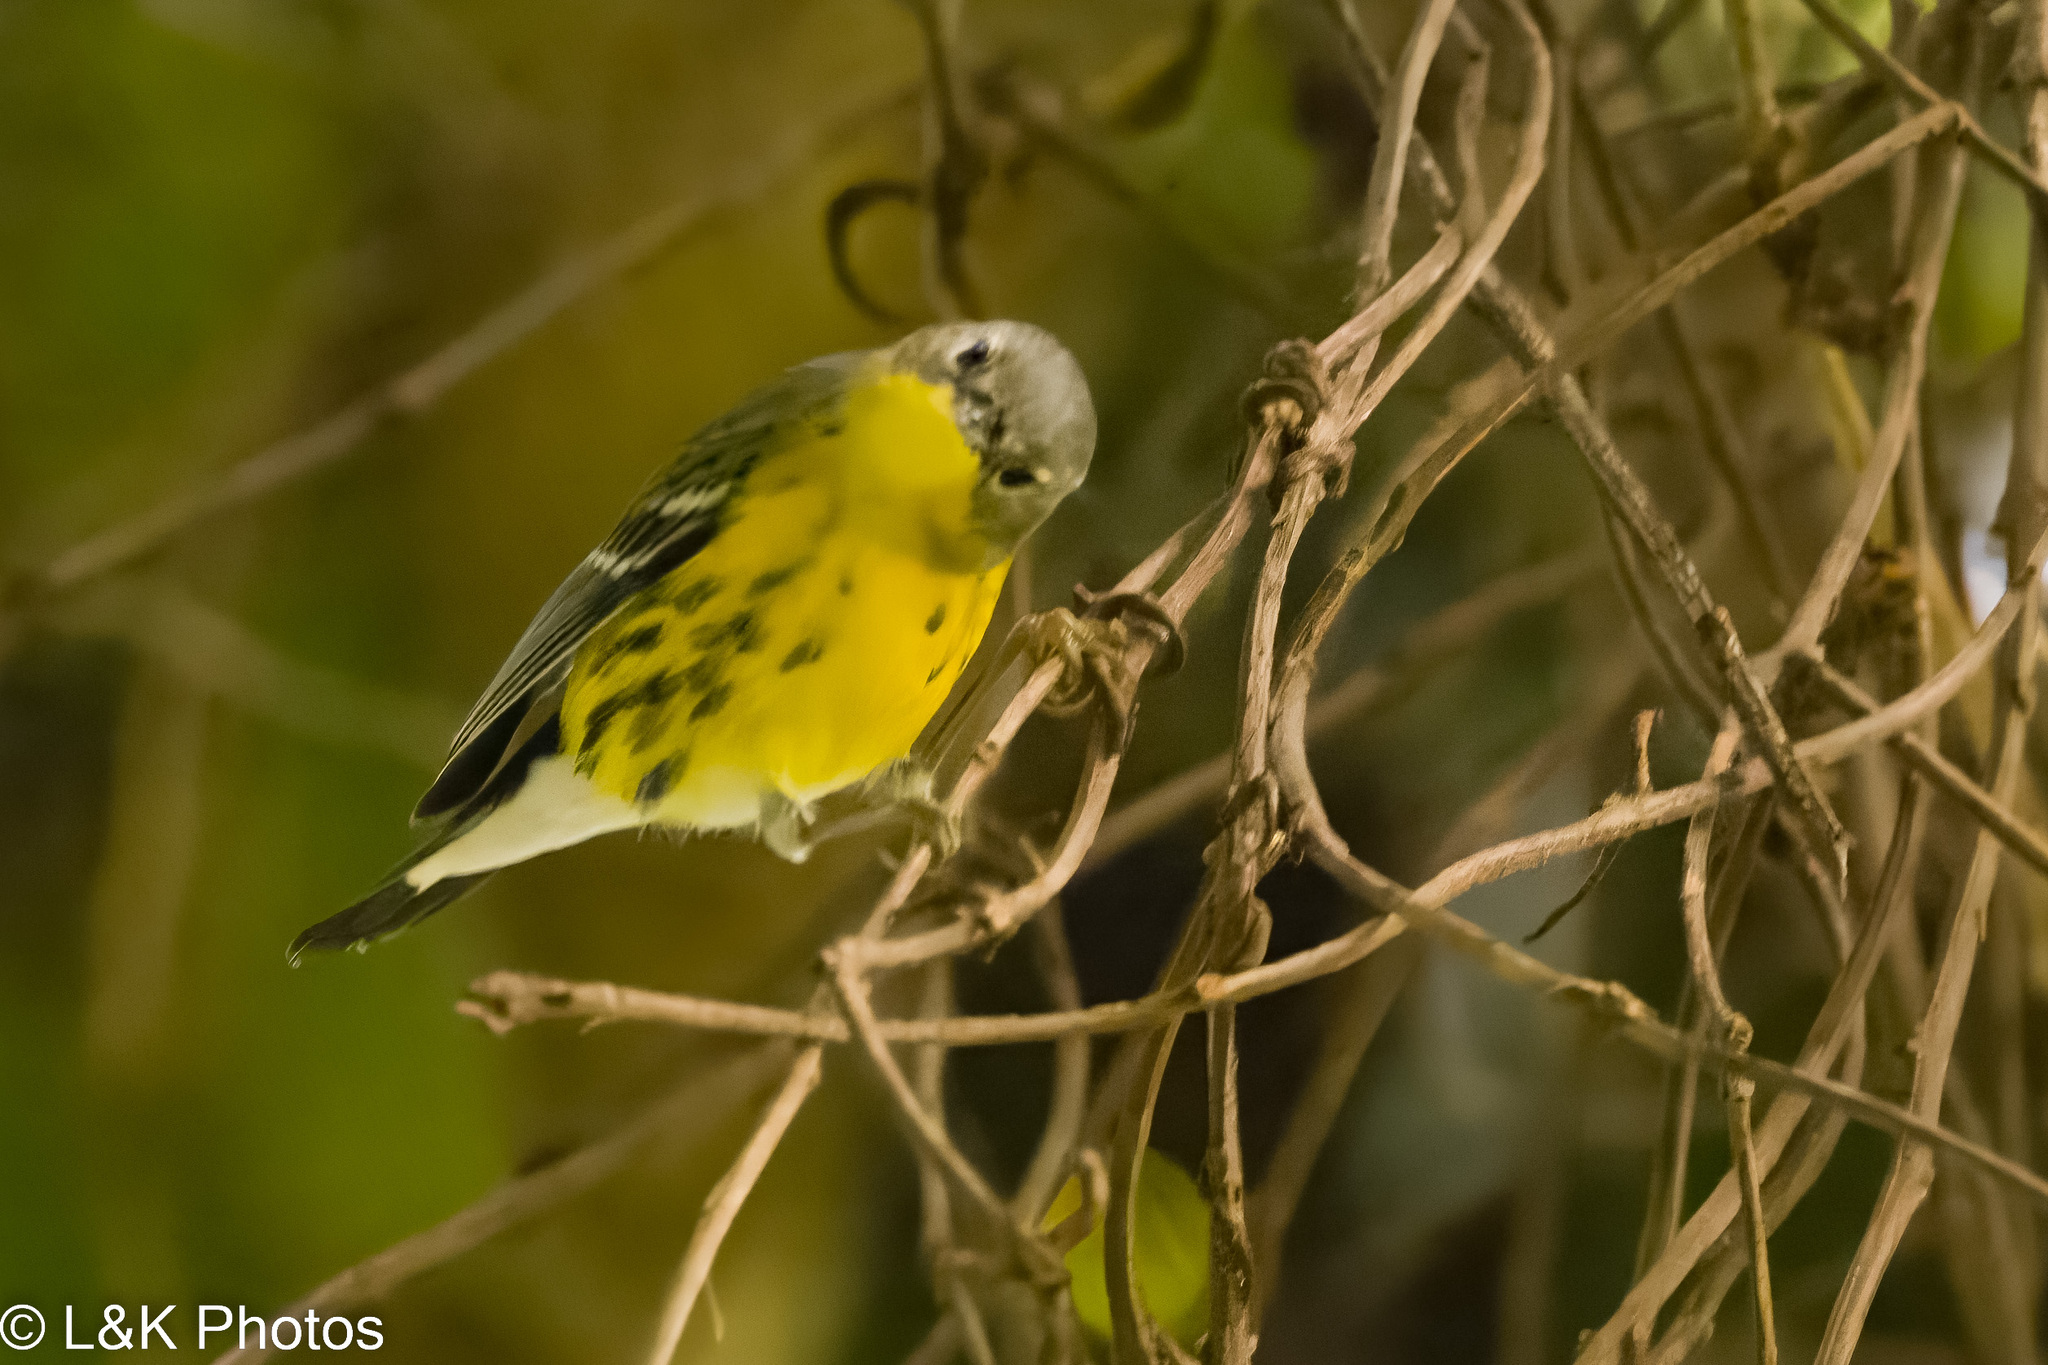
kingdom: Animalia
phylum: Chordata
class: Aves
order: Passeriformes
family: Parulidae
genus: Setophaga
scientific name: Setophaga magnolia
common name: Magnolia warbler
